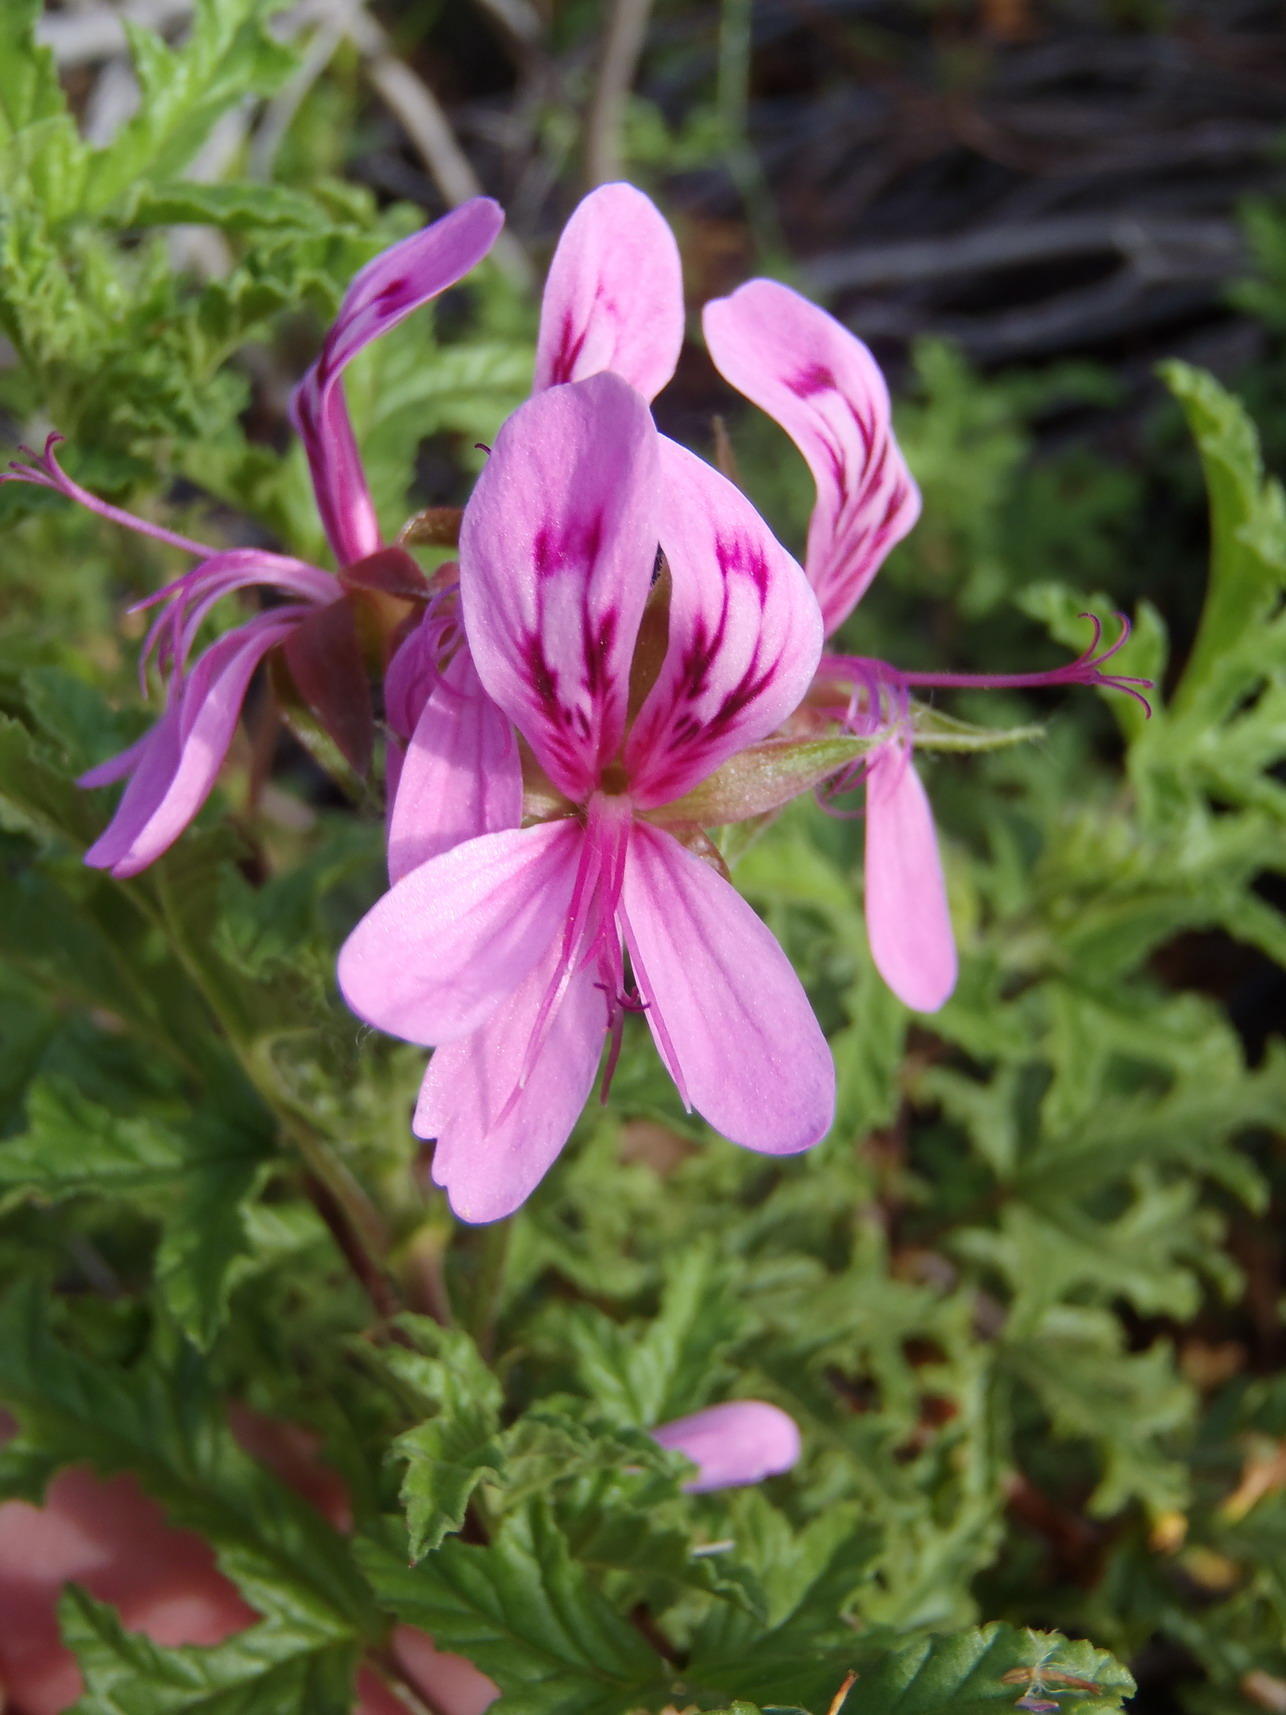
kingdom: Plantae
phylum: Tracheophyta
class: Magnoliopsida
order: Geraniales
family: Geraniaceae
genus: Pelargonium
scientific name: Pelargonium glutinosum
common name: Pheasant-foot geranium
